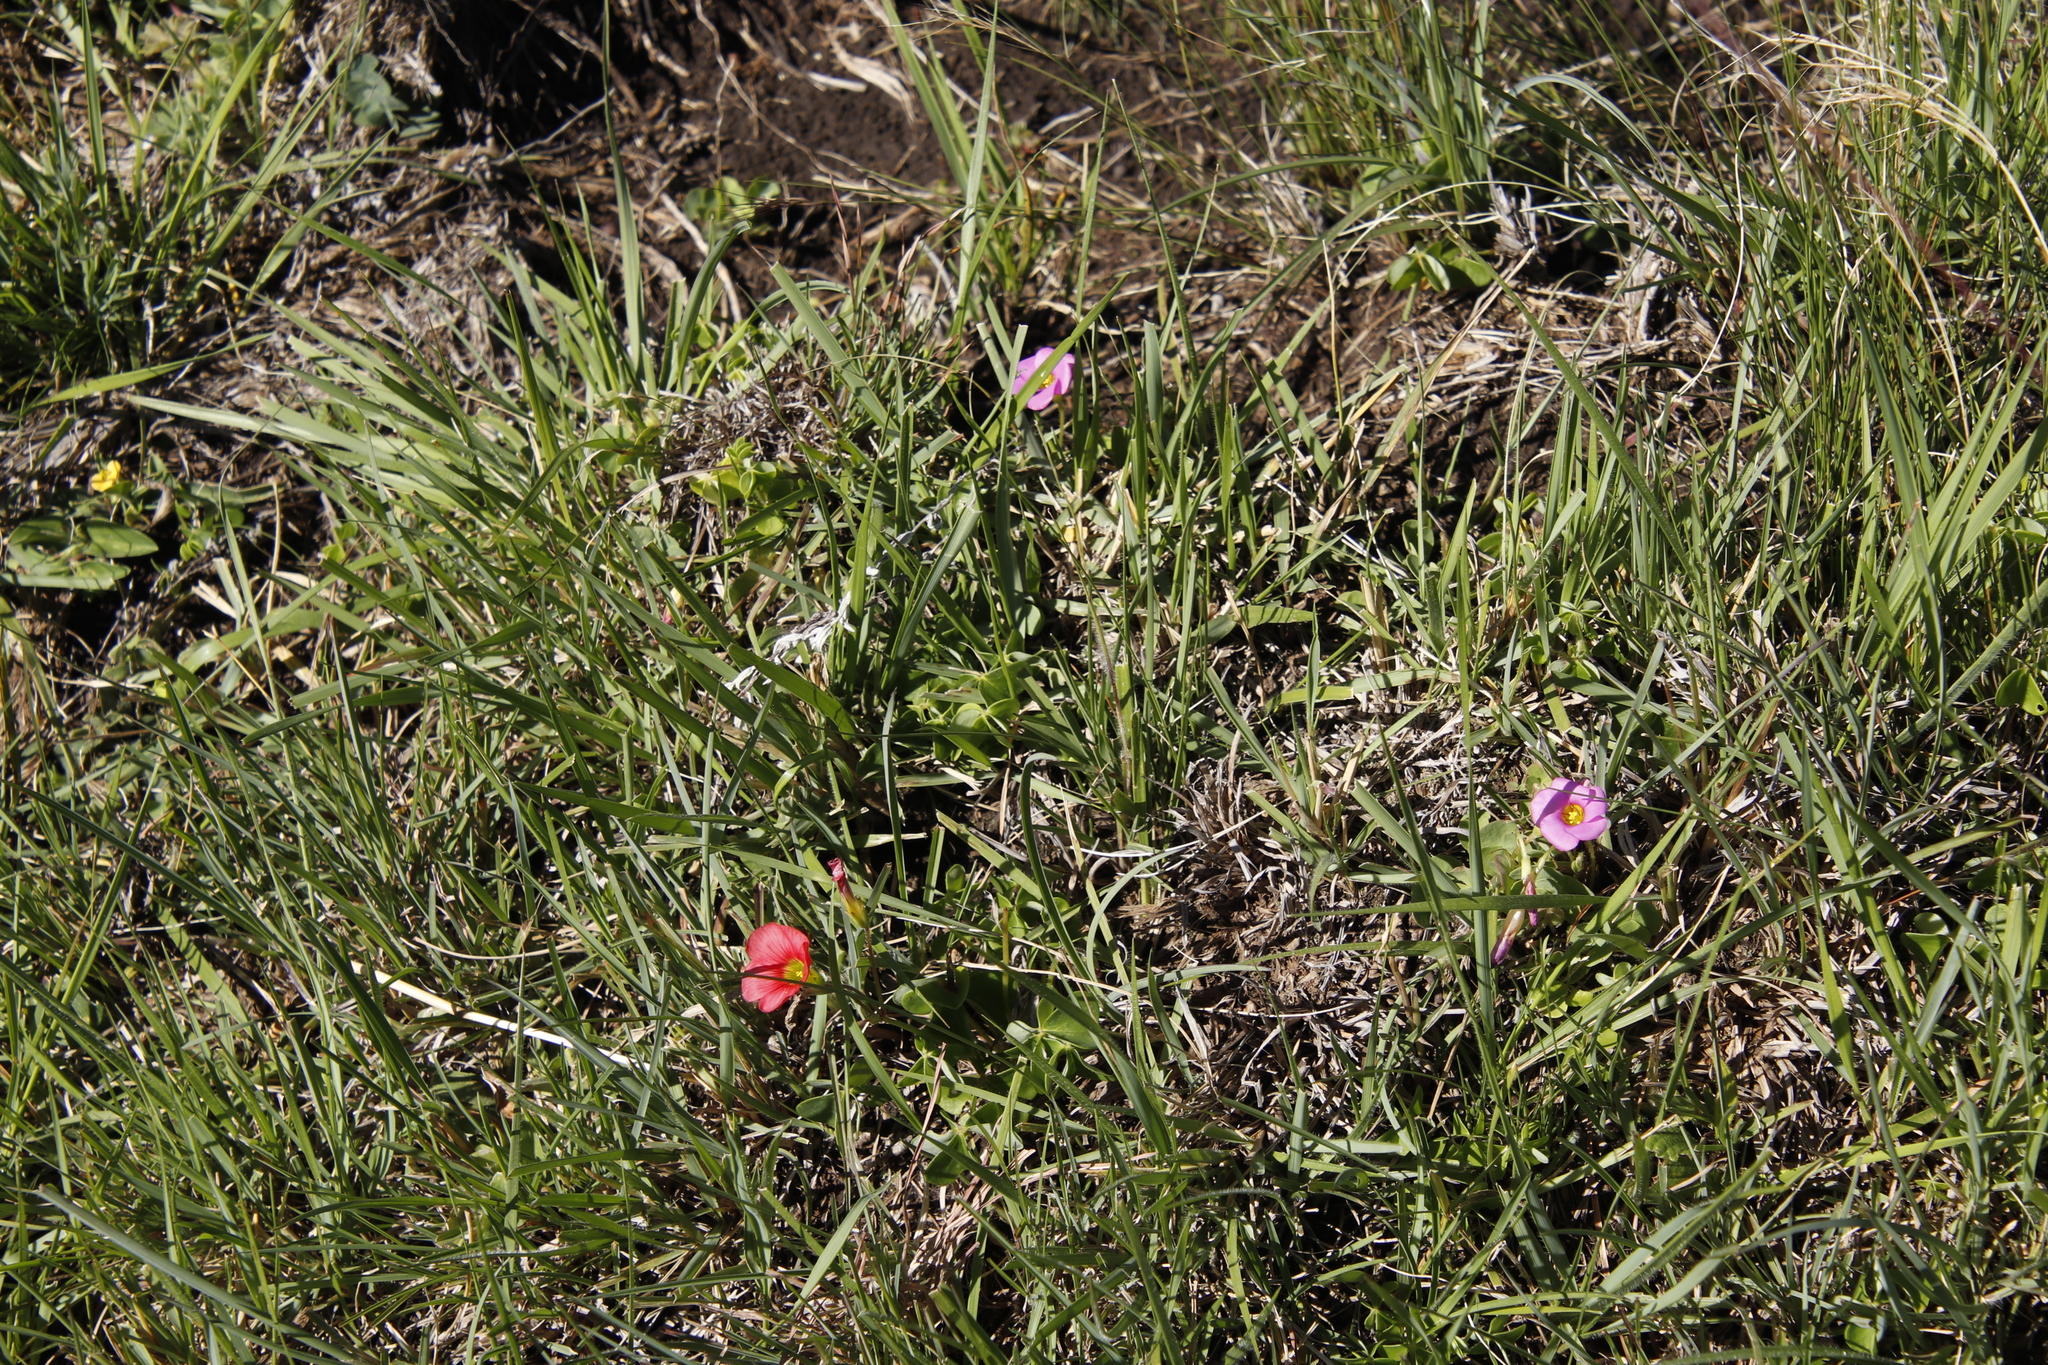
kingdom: Plantae
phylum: Tracheophyta
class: Magnoliopsida
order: Oxalidales
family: Oxalidaceae
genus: Oxalis
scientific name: Oxalis obliquifolia
